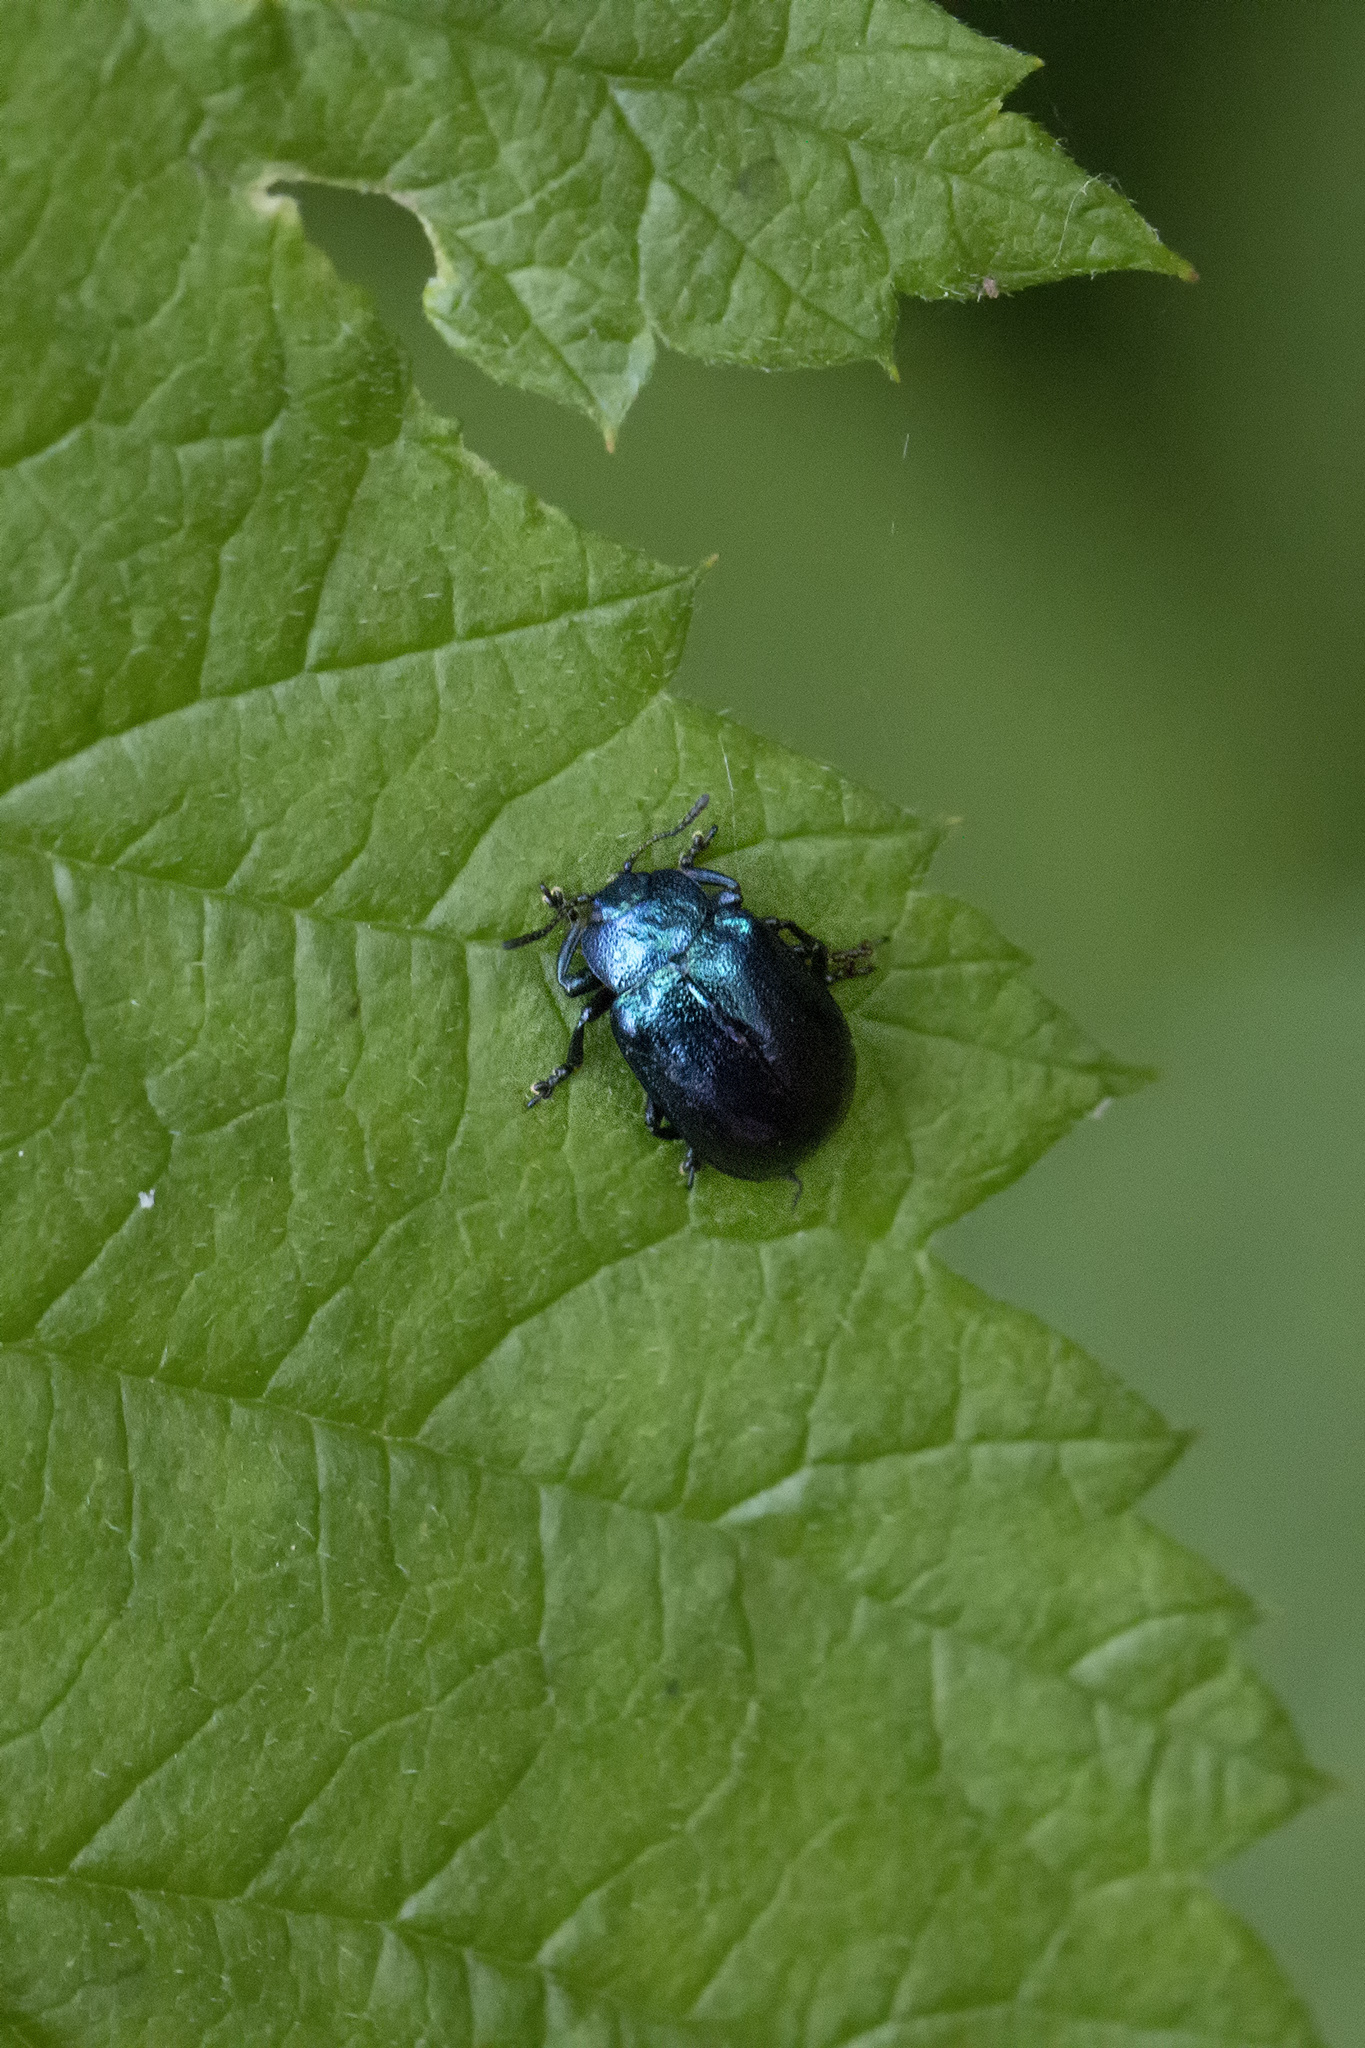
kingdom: Animalia
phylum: Arthropoda
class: Insecta
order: Coleoptera
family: Chrysomelidae
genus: Plagiosterna
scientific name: Plagiosterna aenea
